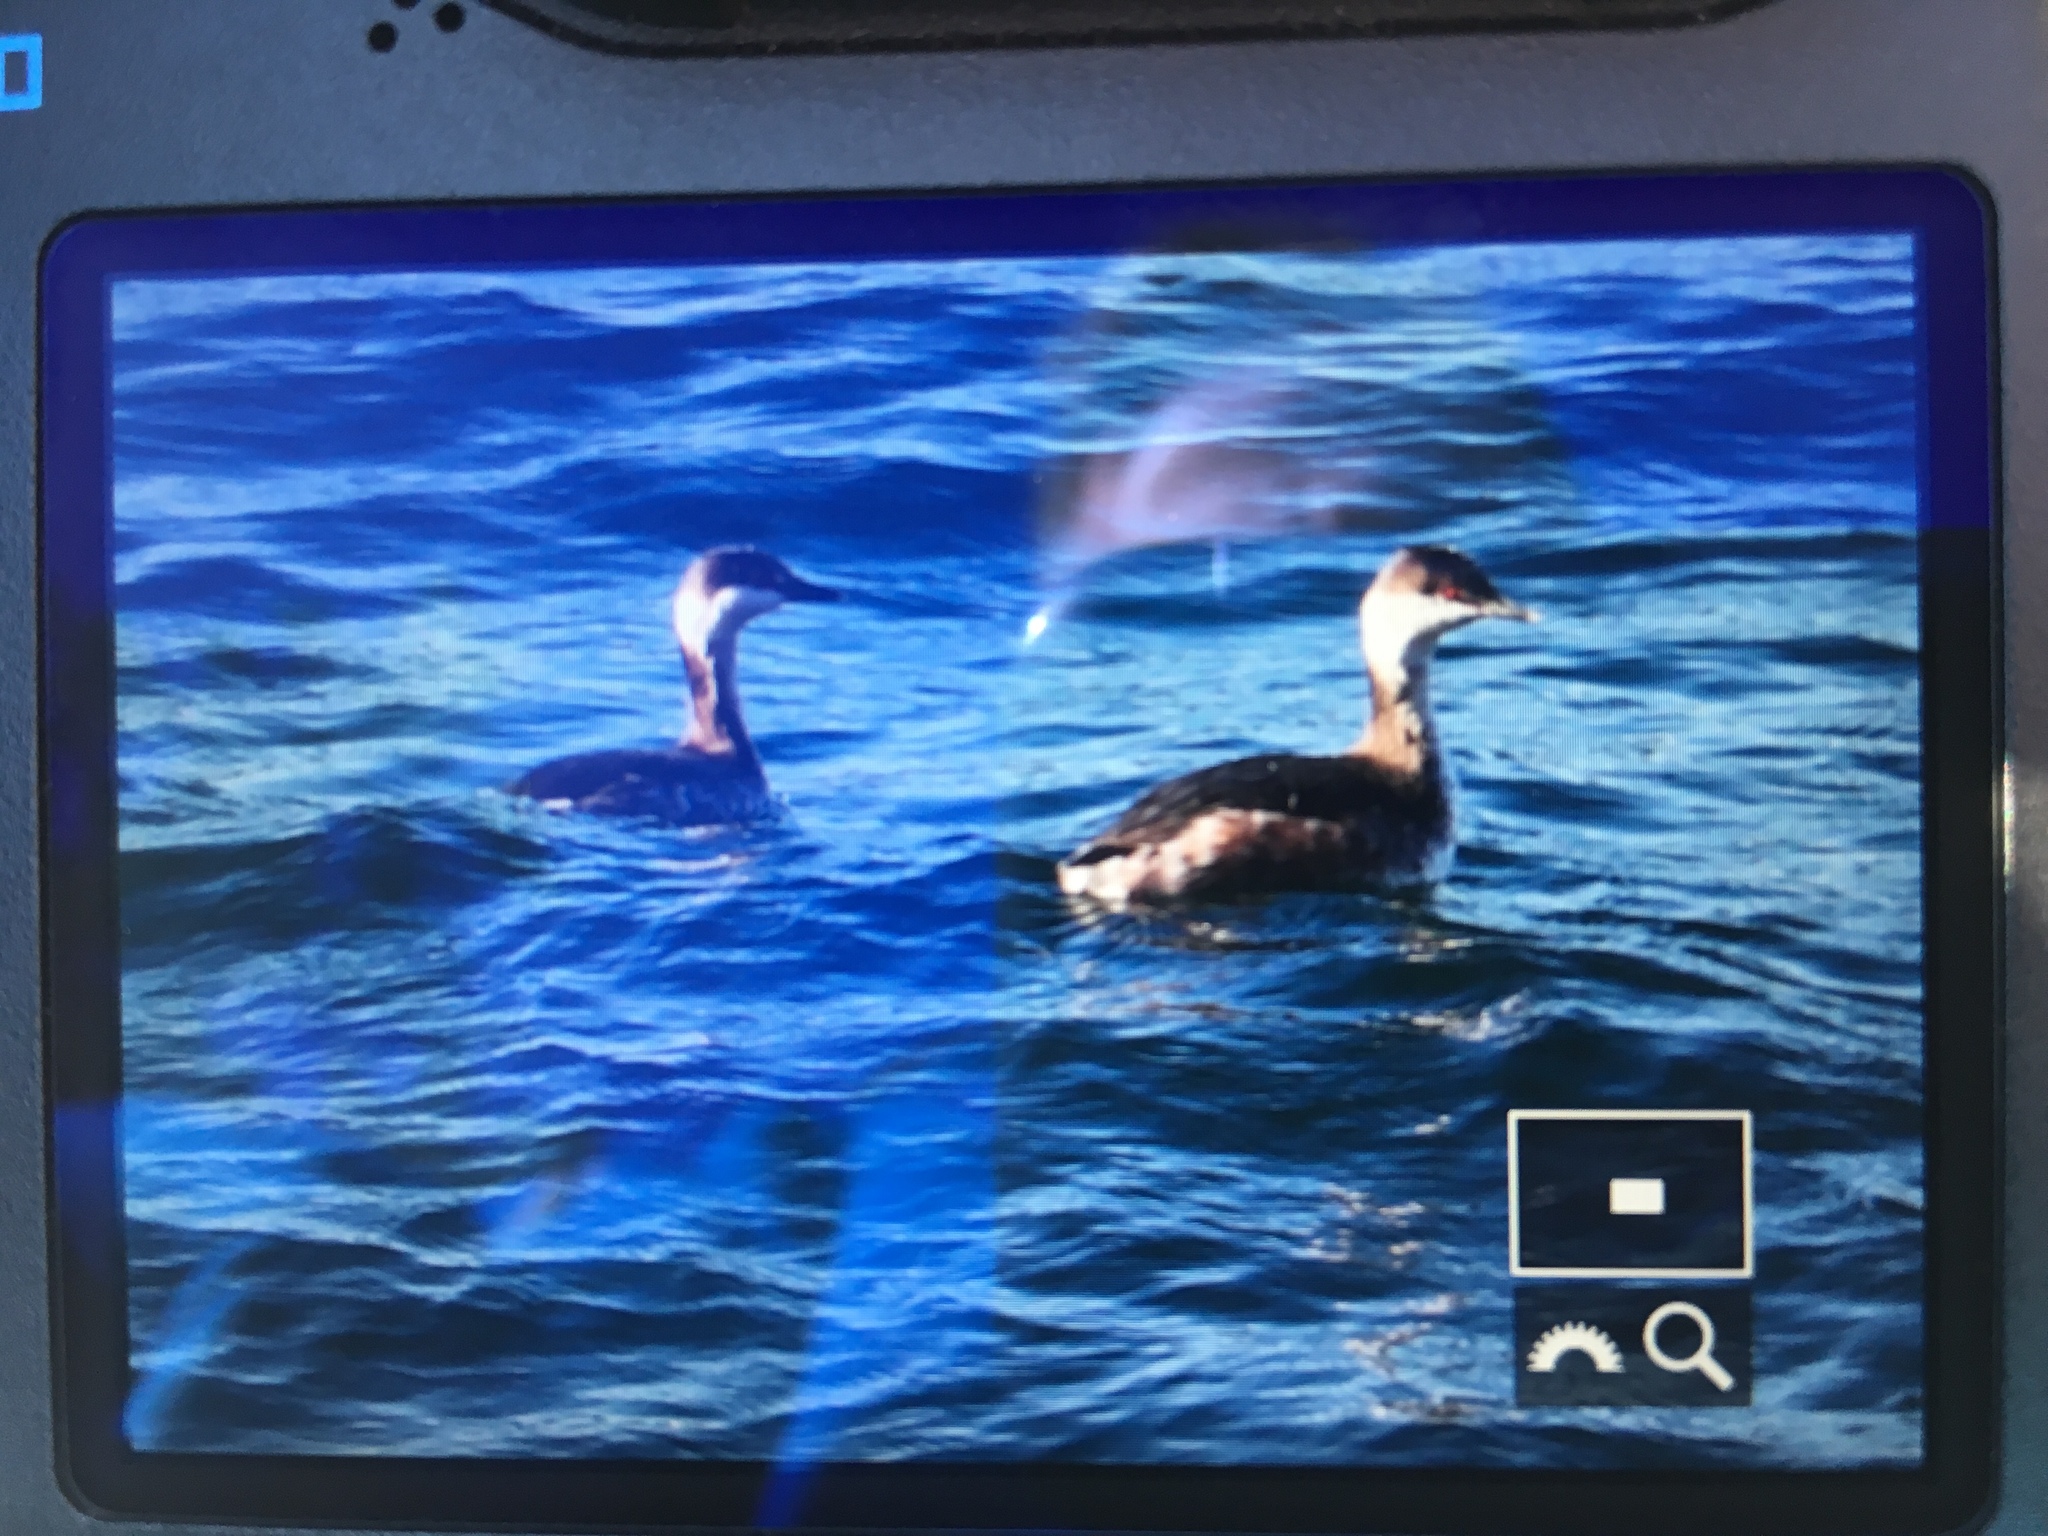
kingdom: Animalia
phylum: Chordata
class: Aves
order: Podicipediformes
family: Podicipedidae
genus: Podiceps
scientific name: Podiceps auritus
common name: Horned grebe
